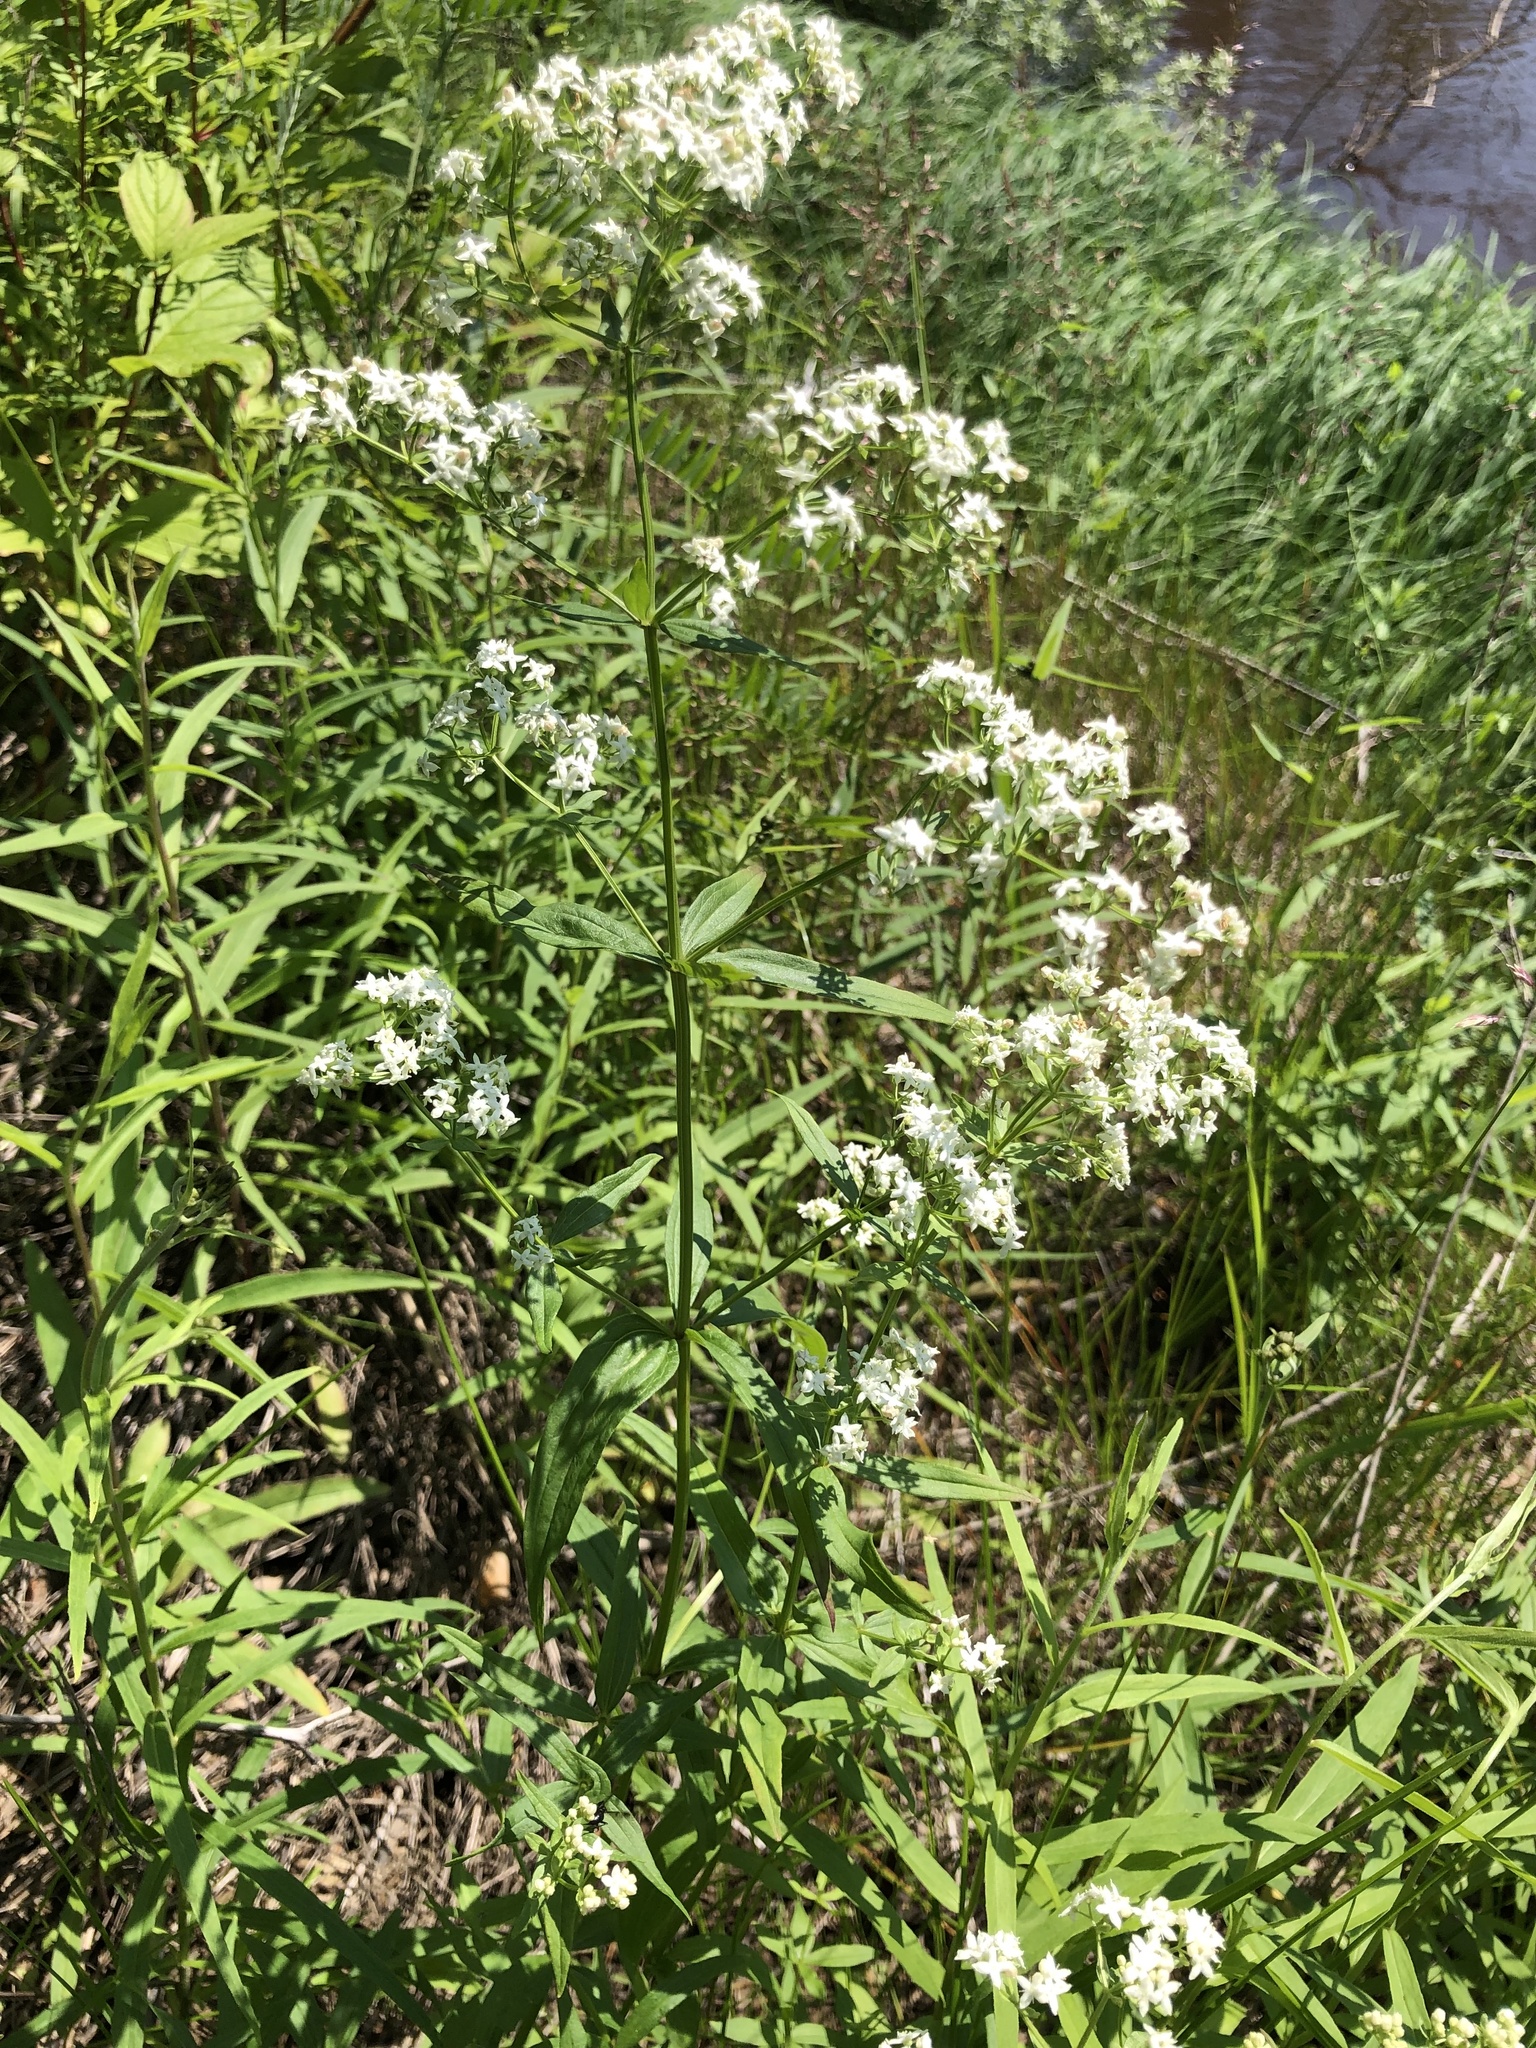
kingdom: Plantae
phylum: Tracheophyta
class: Magnoliopsida
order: Gentianales
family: Rubiaceae
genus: Galium
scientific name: Galium rubioides
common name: European bedstraw
